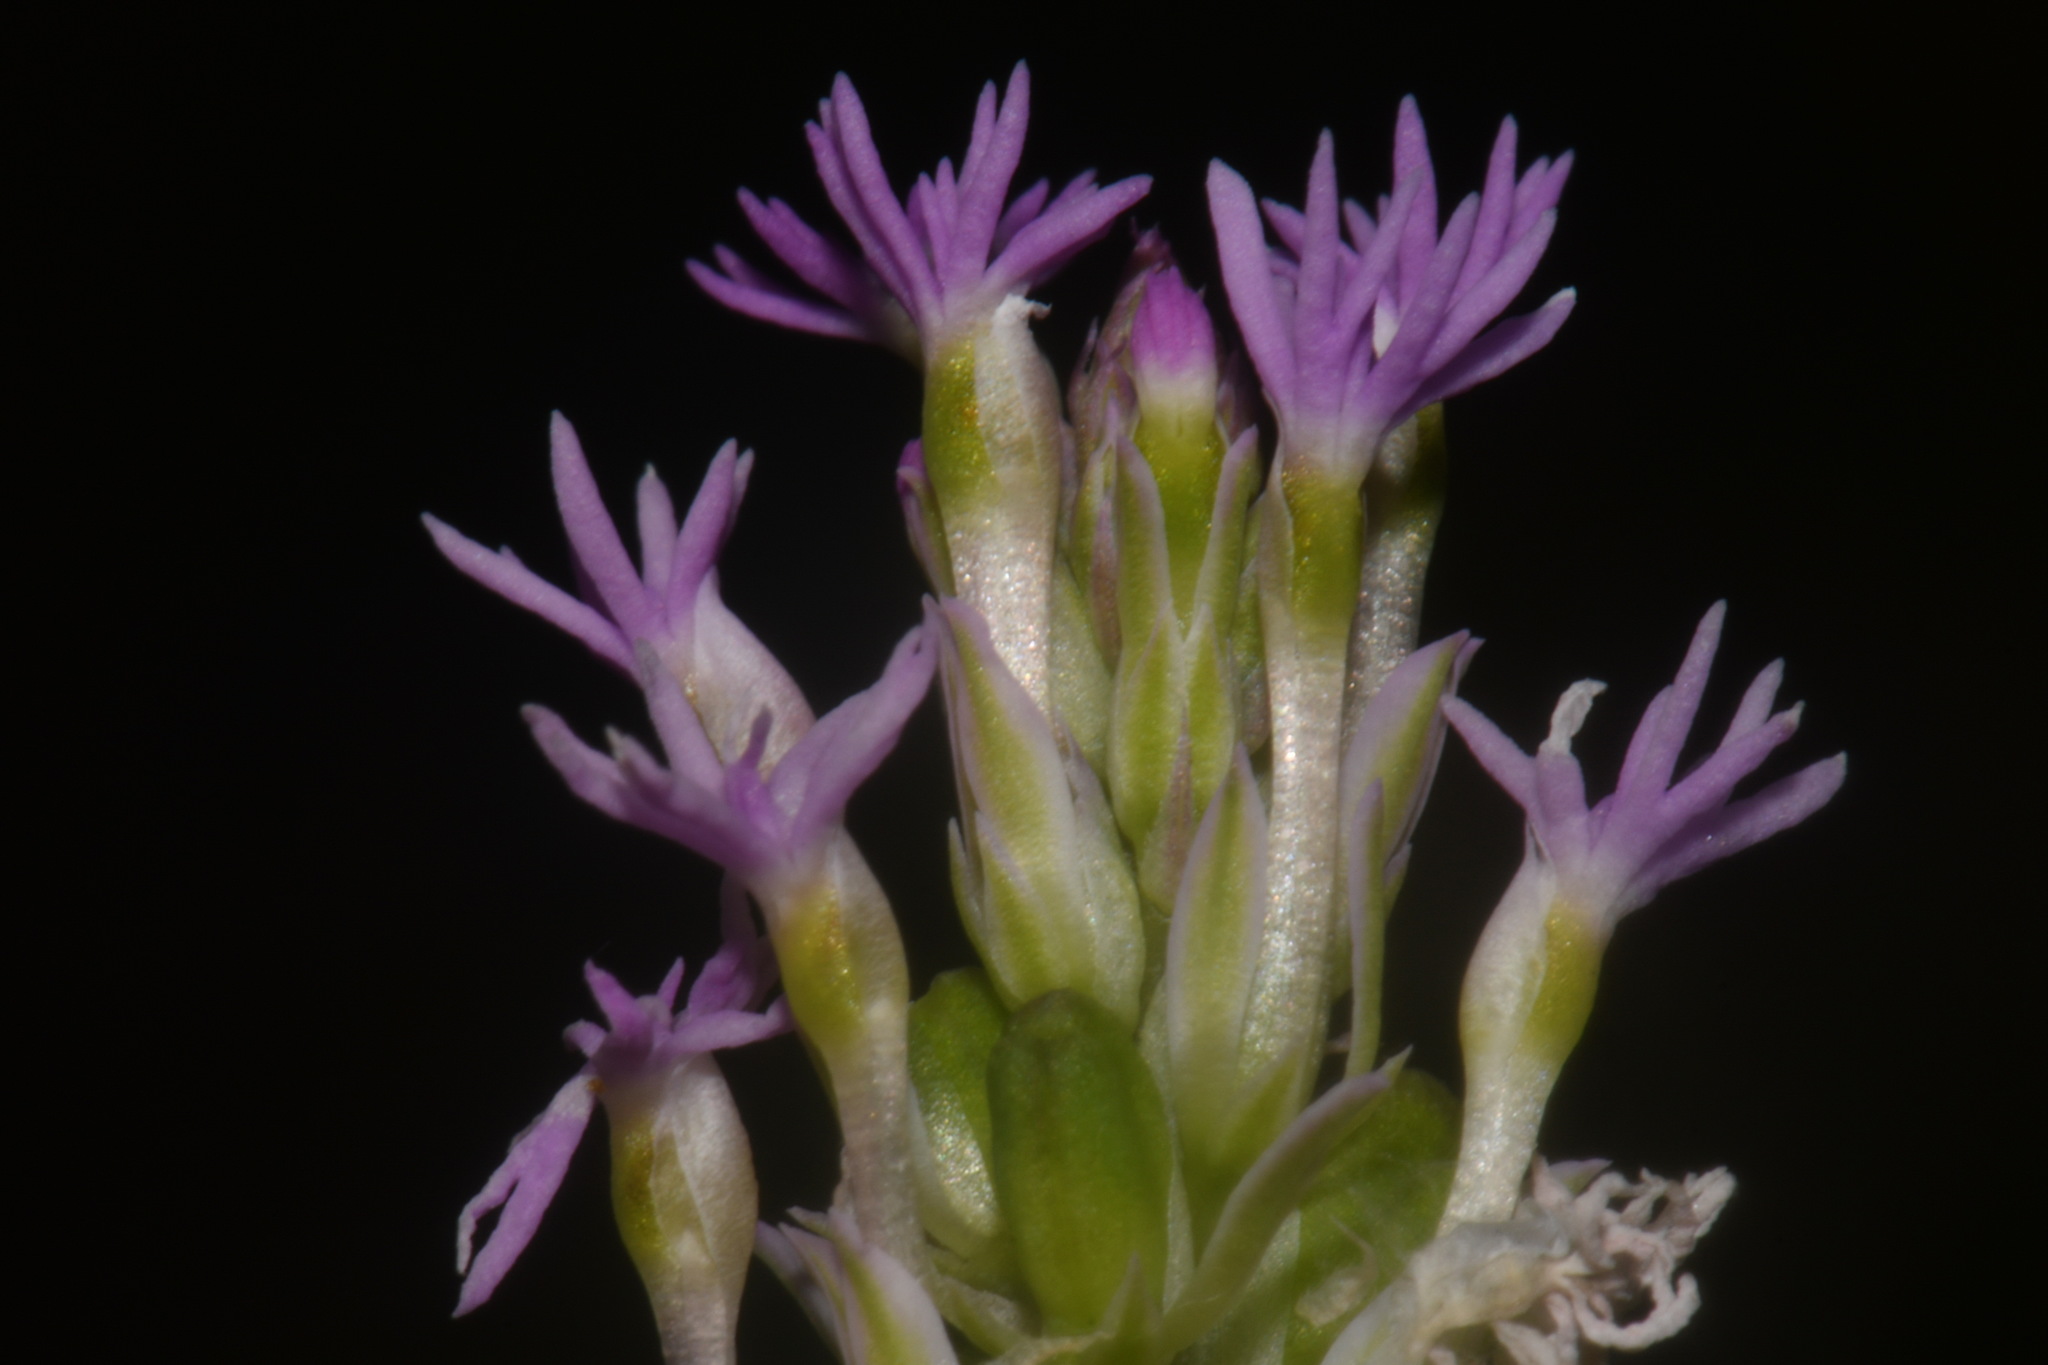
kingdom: Plantae
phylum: Tracheophyta
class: Magnoliopsida
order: Fabales
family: Polygalaceae
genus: Polygala
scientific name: Polygala incarnata
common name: Pink milkwort
